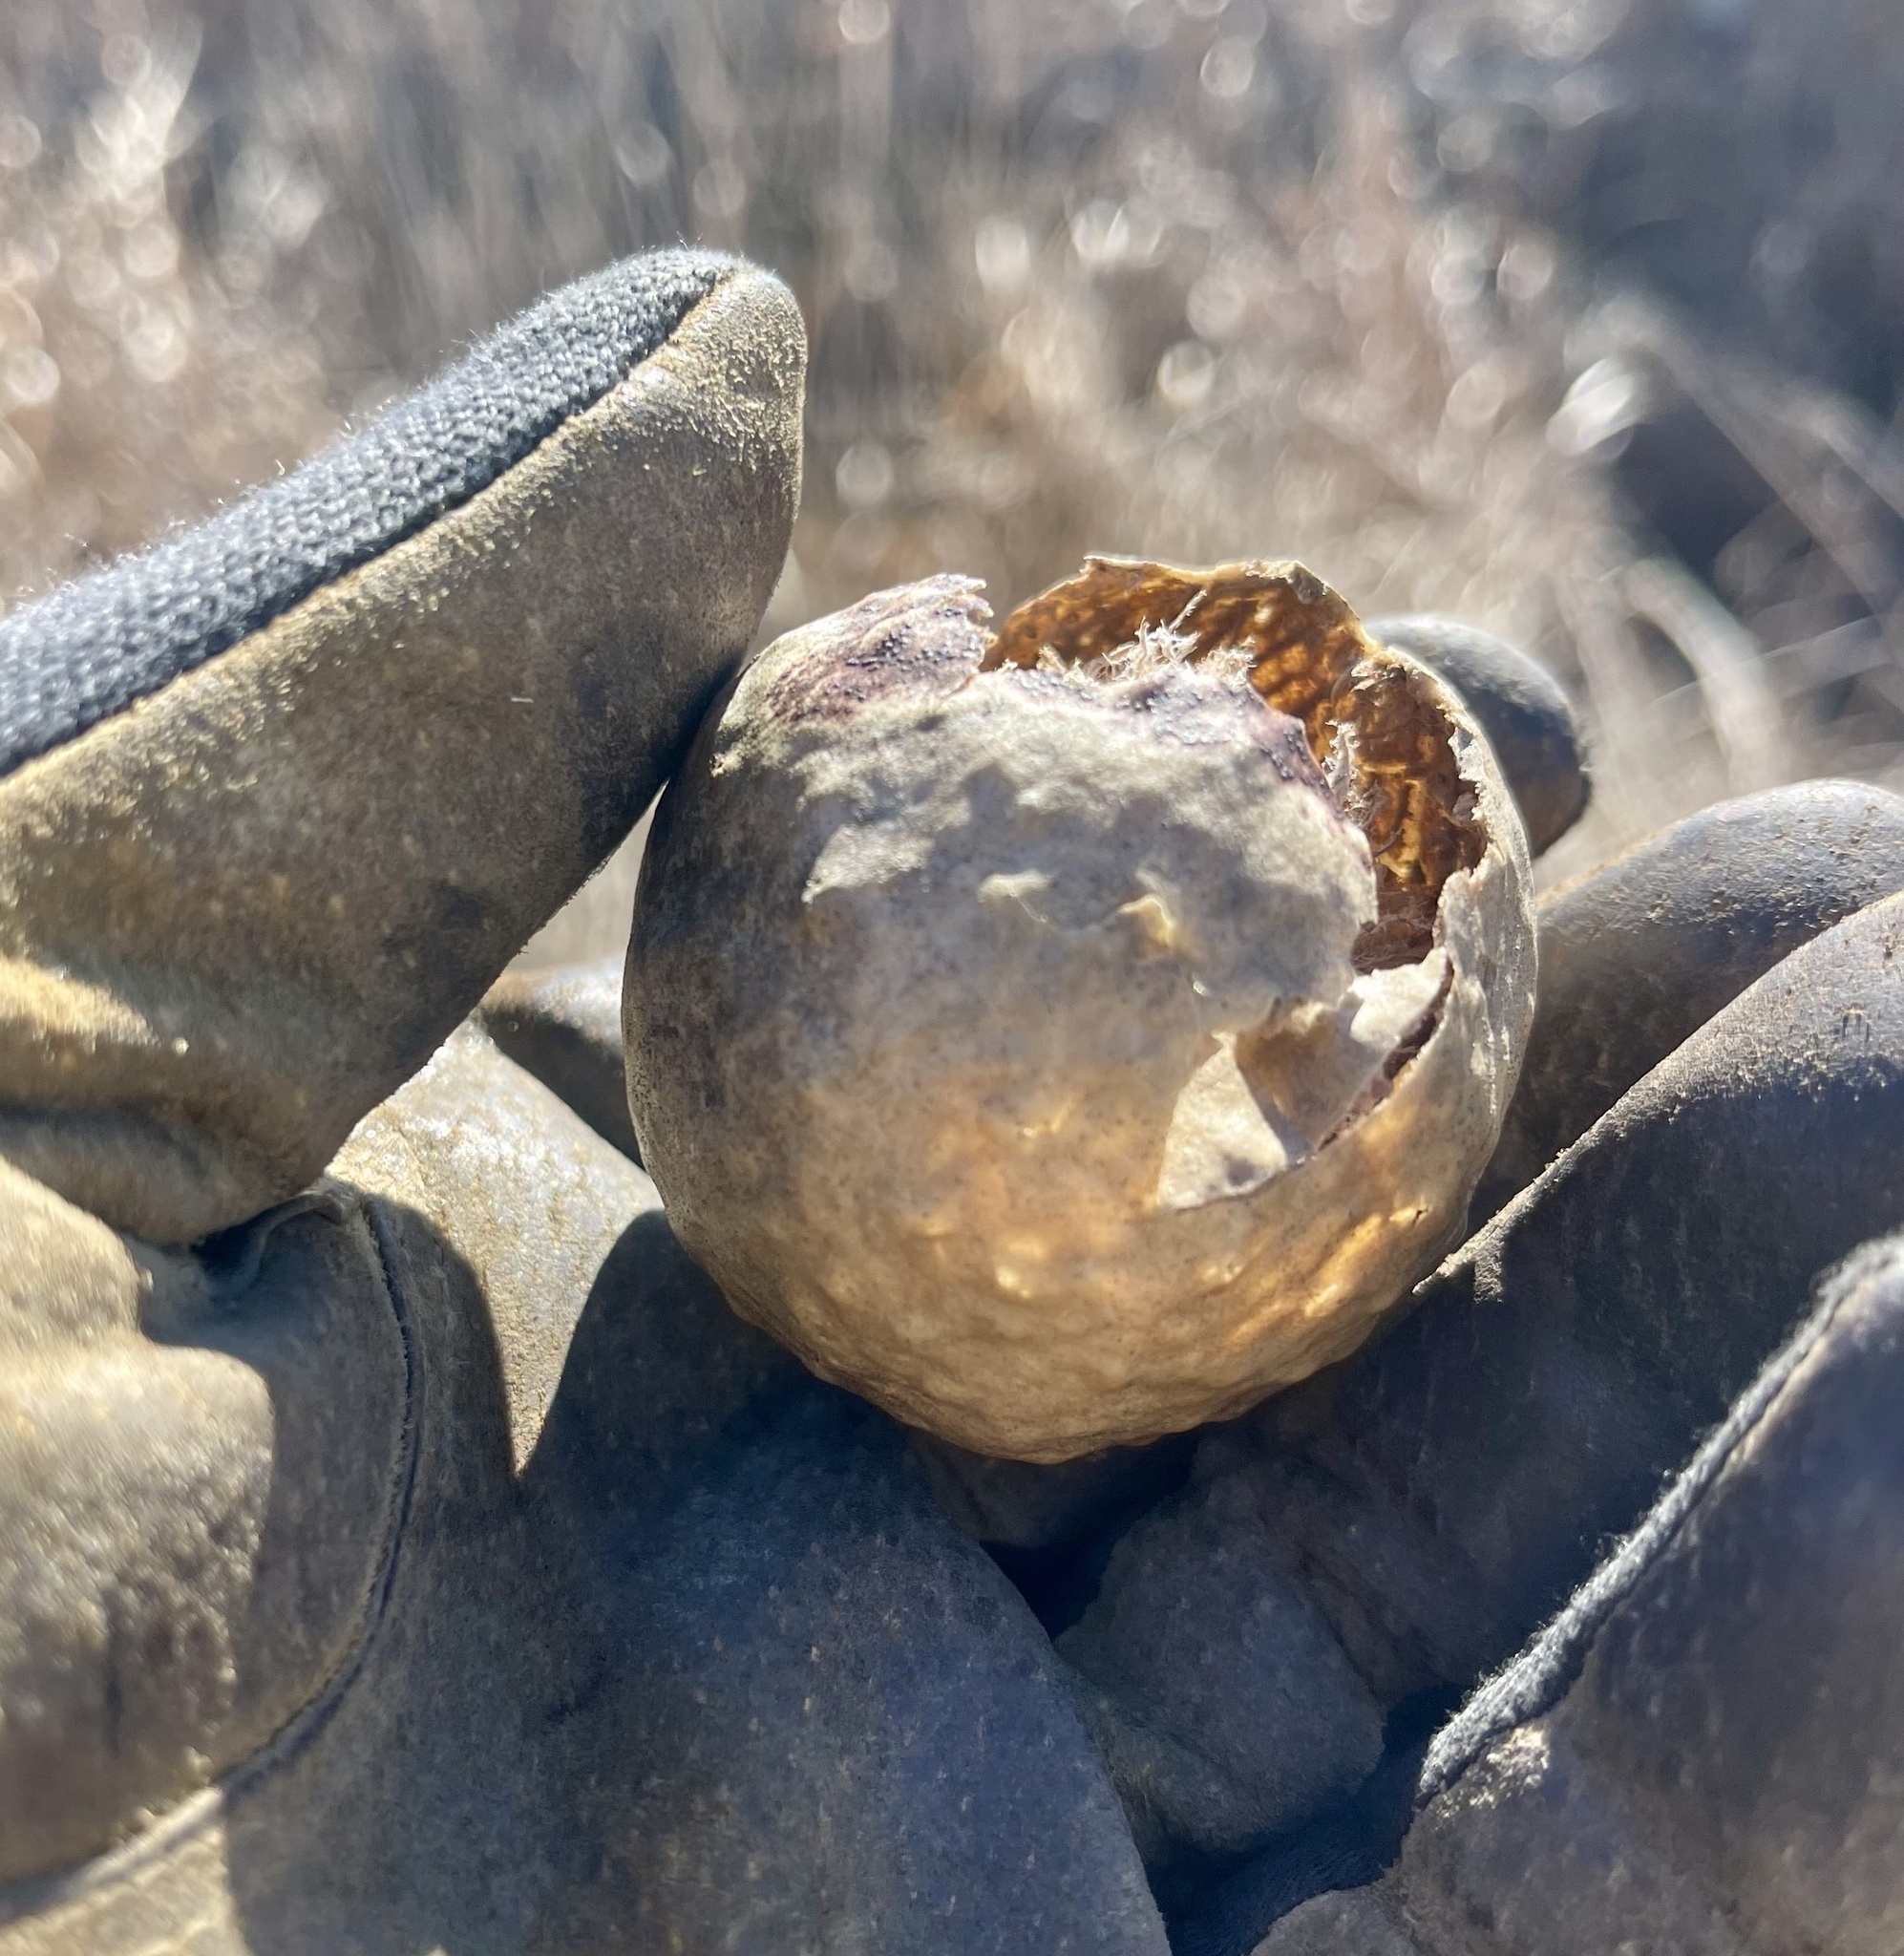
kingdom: Animalia
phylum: Arthropoda
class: Insecta
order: Hymenoptera
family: Cynipidae
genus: Amphibolips
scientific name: Amphibolips
